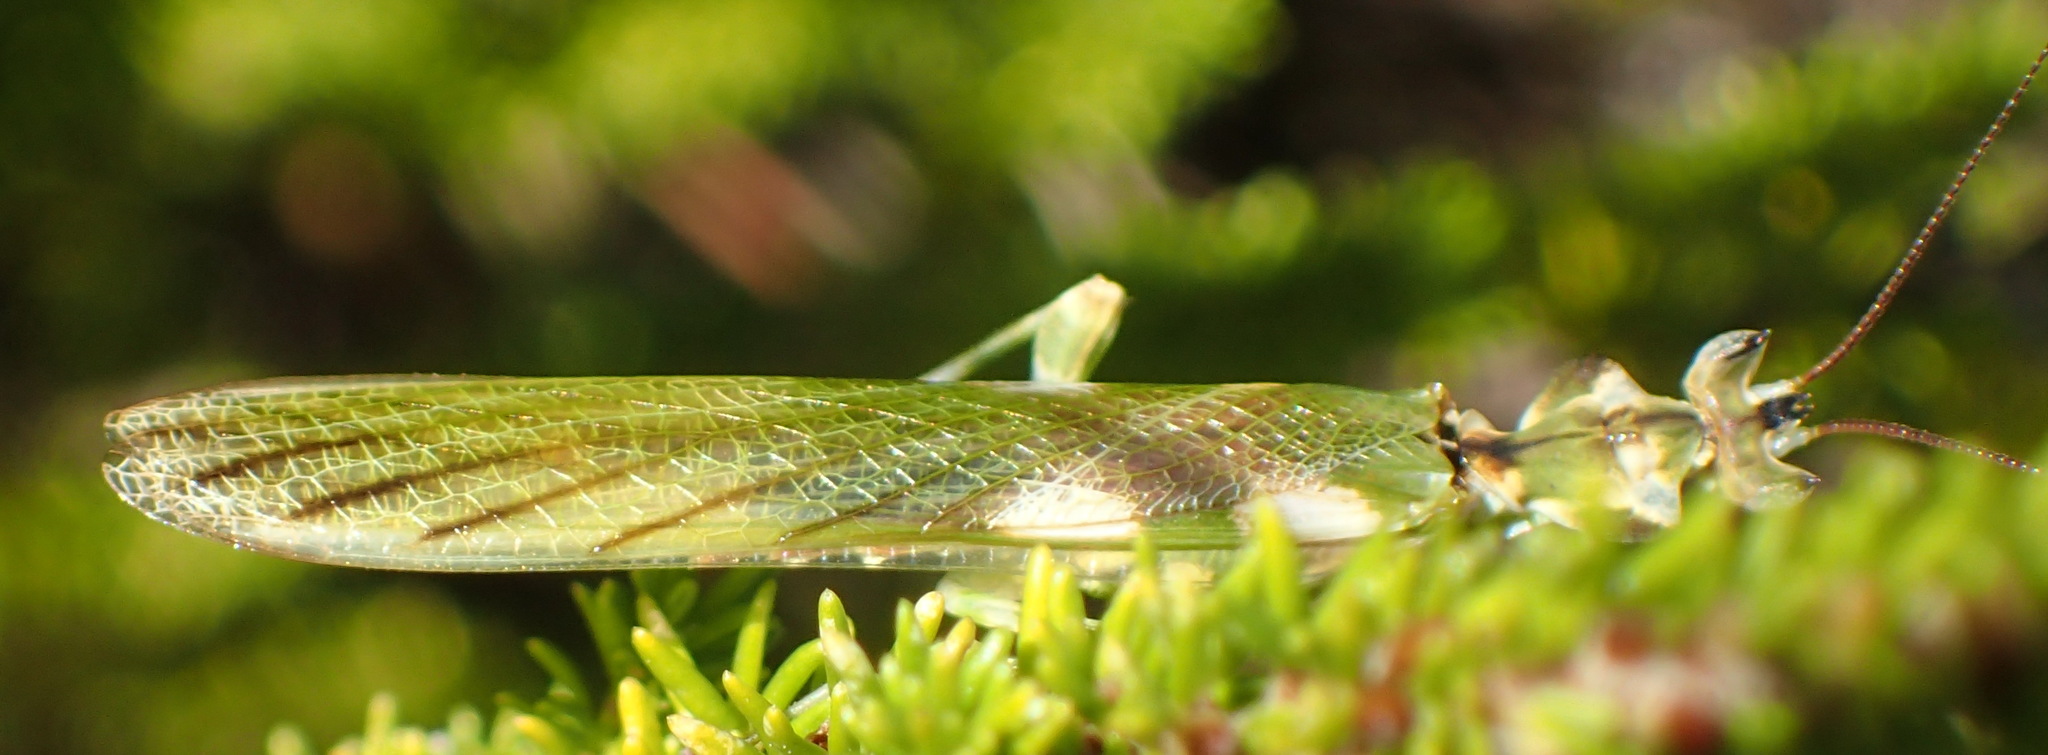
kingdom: Animalia
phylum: Arthropoda
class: Insecta
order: Mantodea
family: Galinthiadidae
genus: Harpagomantis
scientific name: Harpagomantis tricolor
